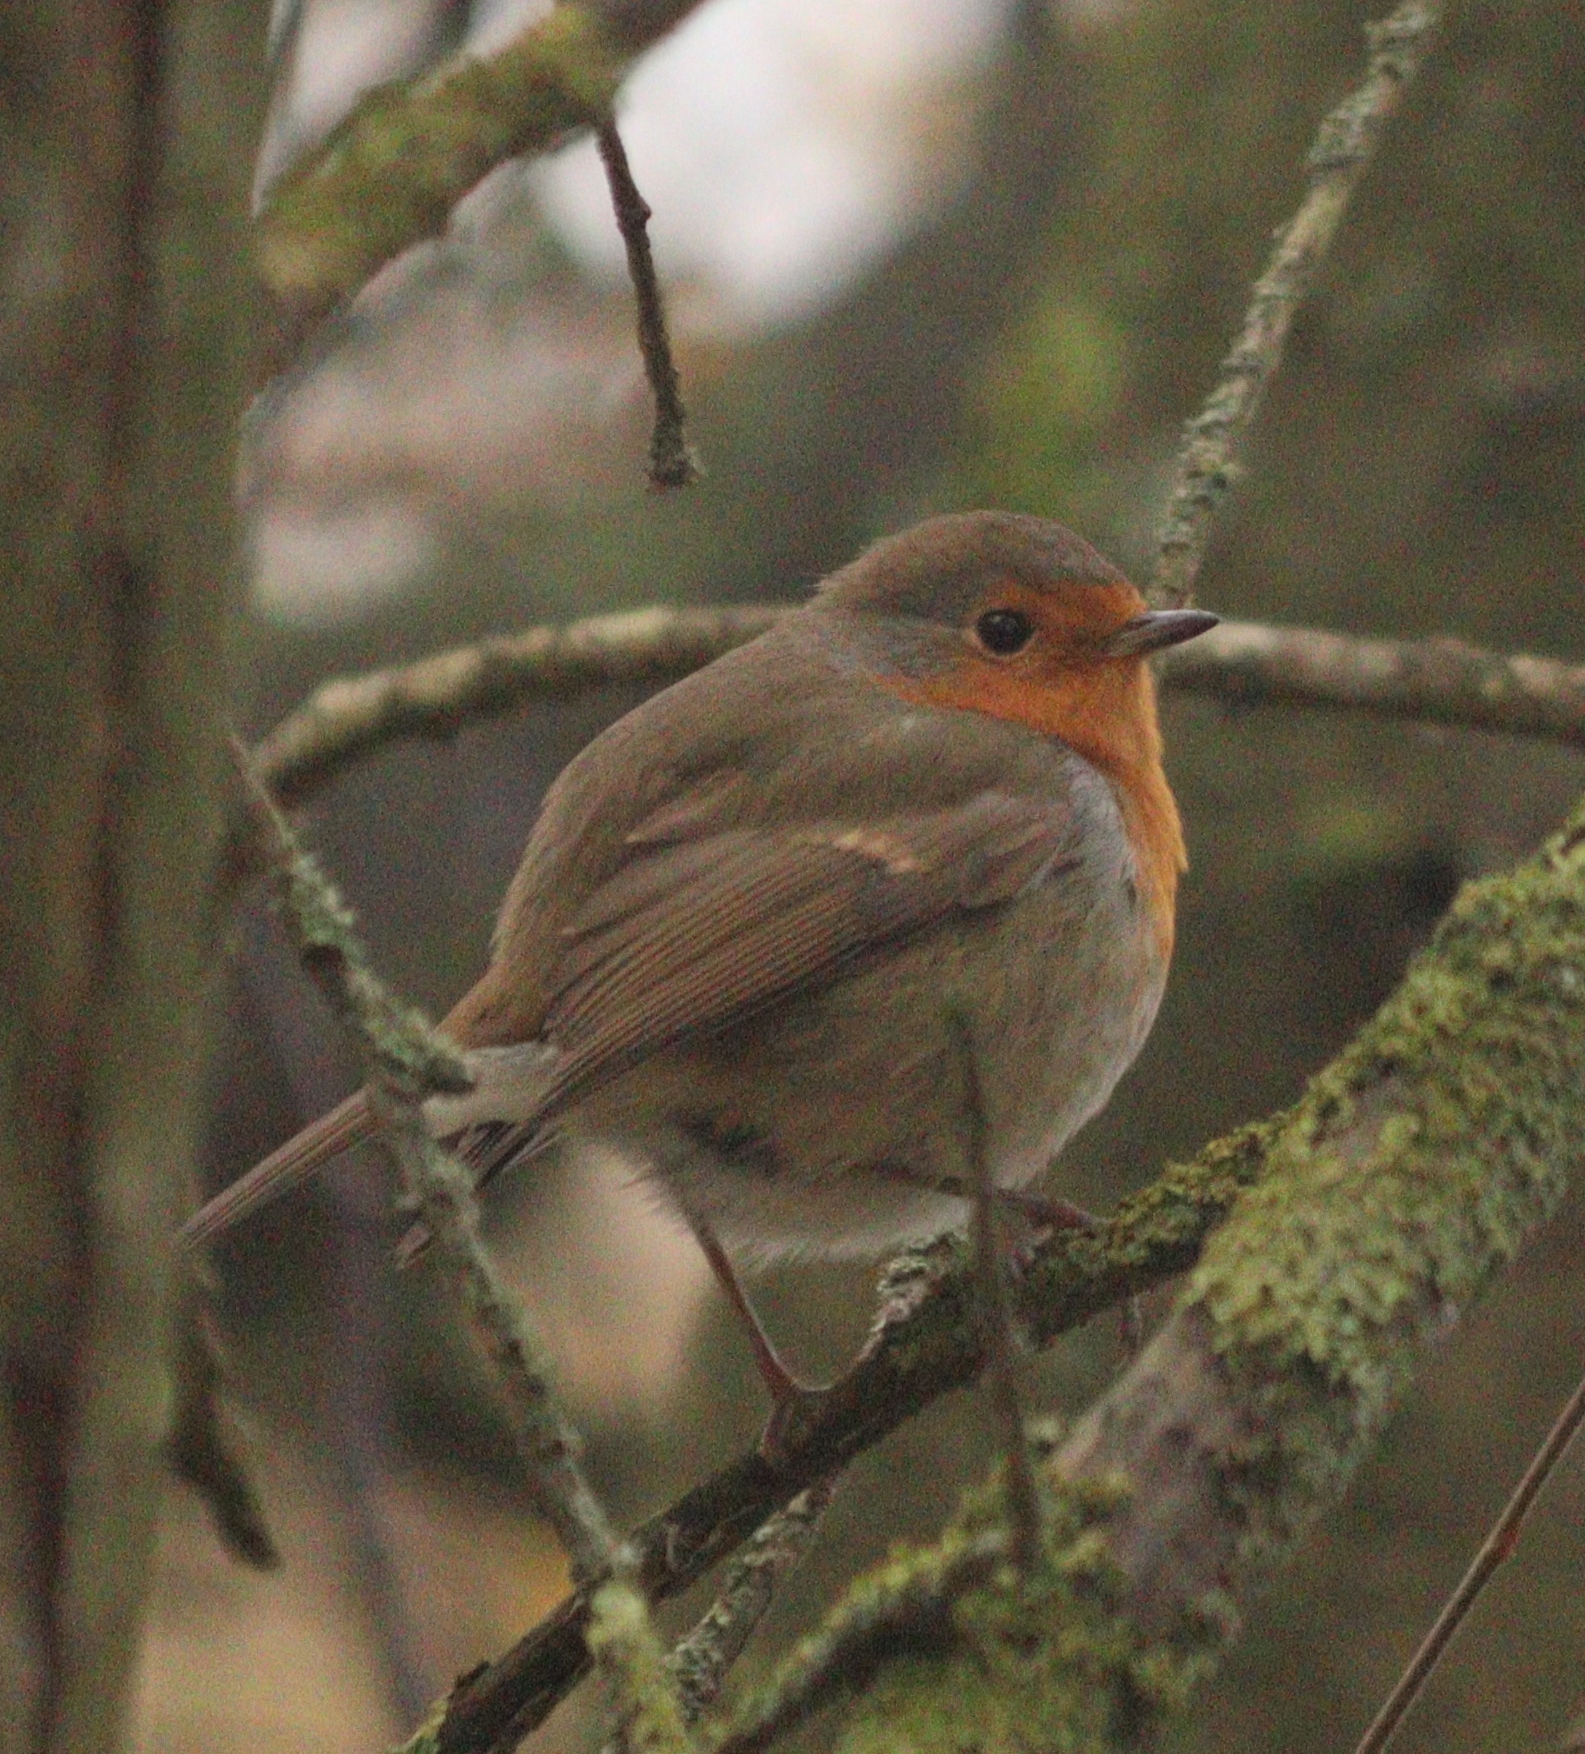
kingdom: Animalia
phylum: Chordata
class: Aves
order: Passeriformes
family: Muscicapidae
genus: Erithacus
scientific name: Erithacus rubecula
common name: European robin
